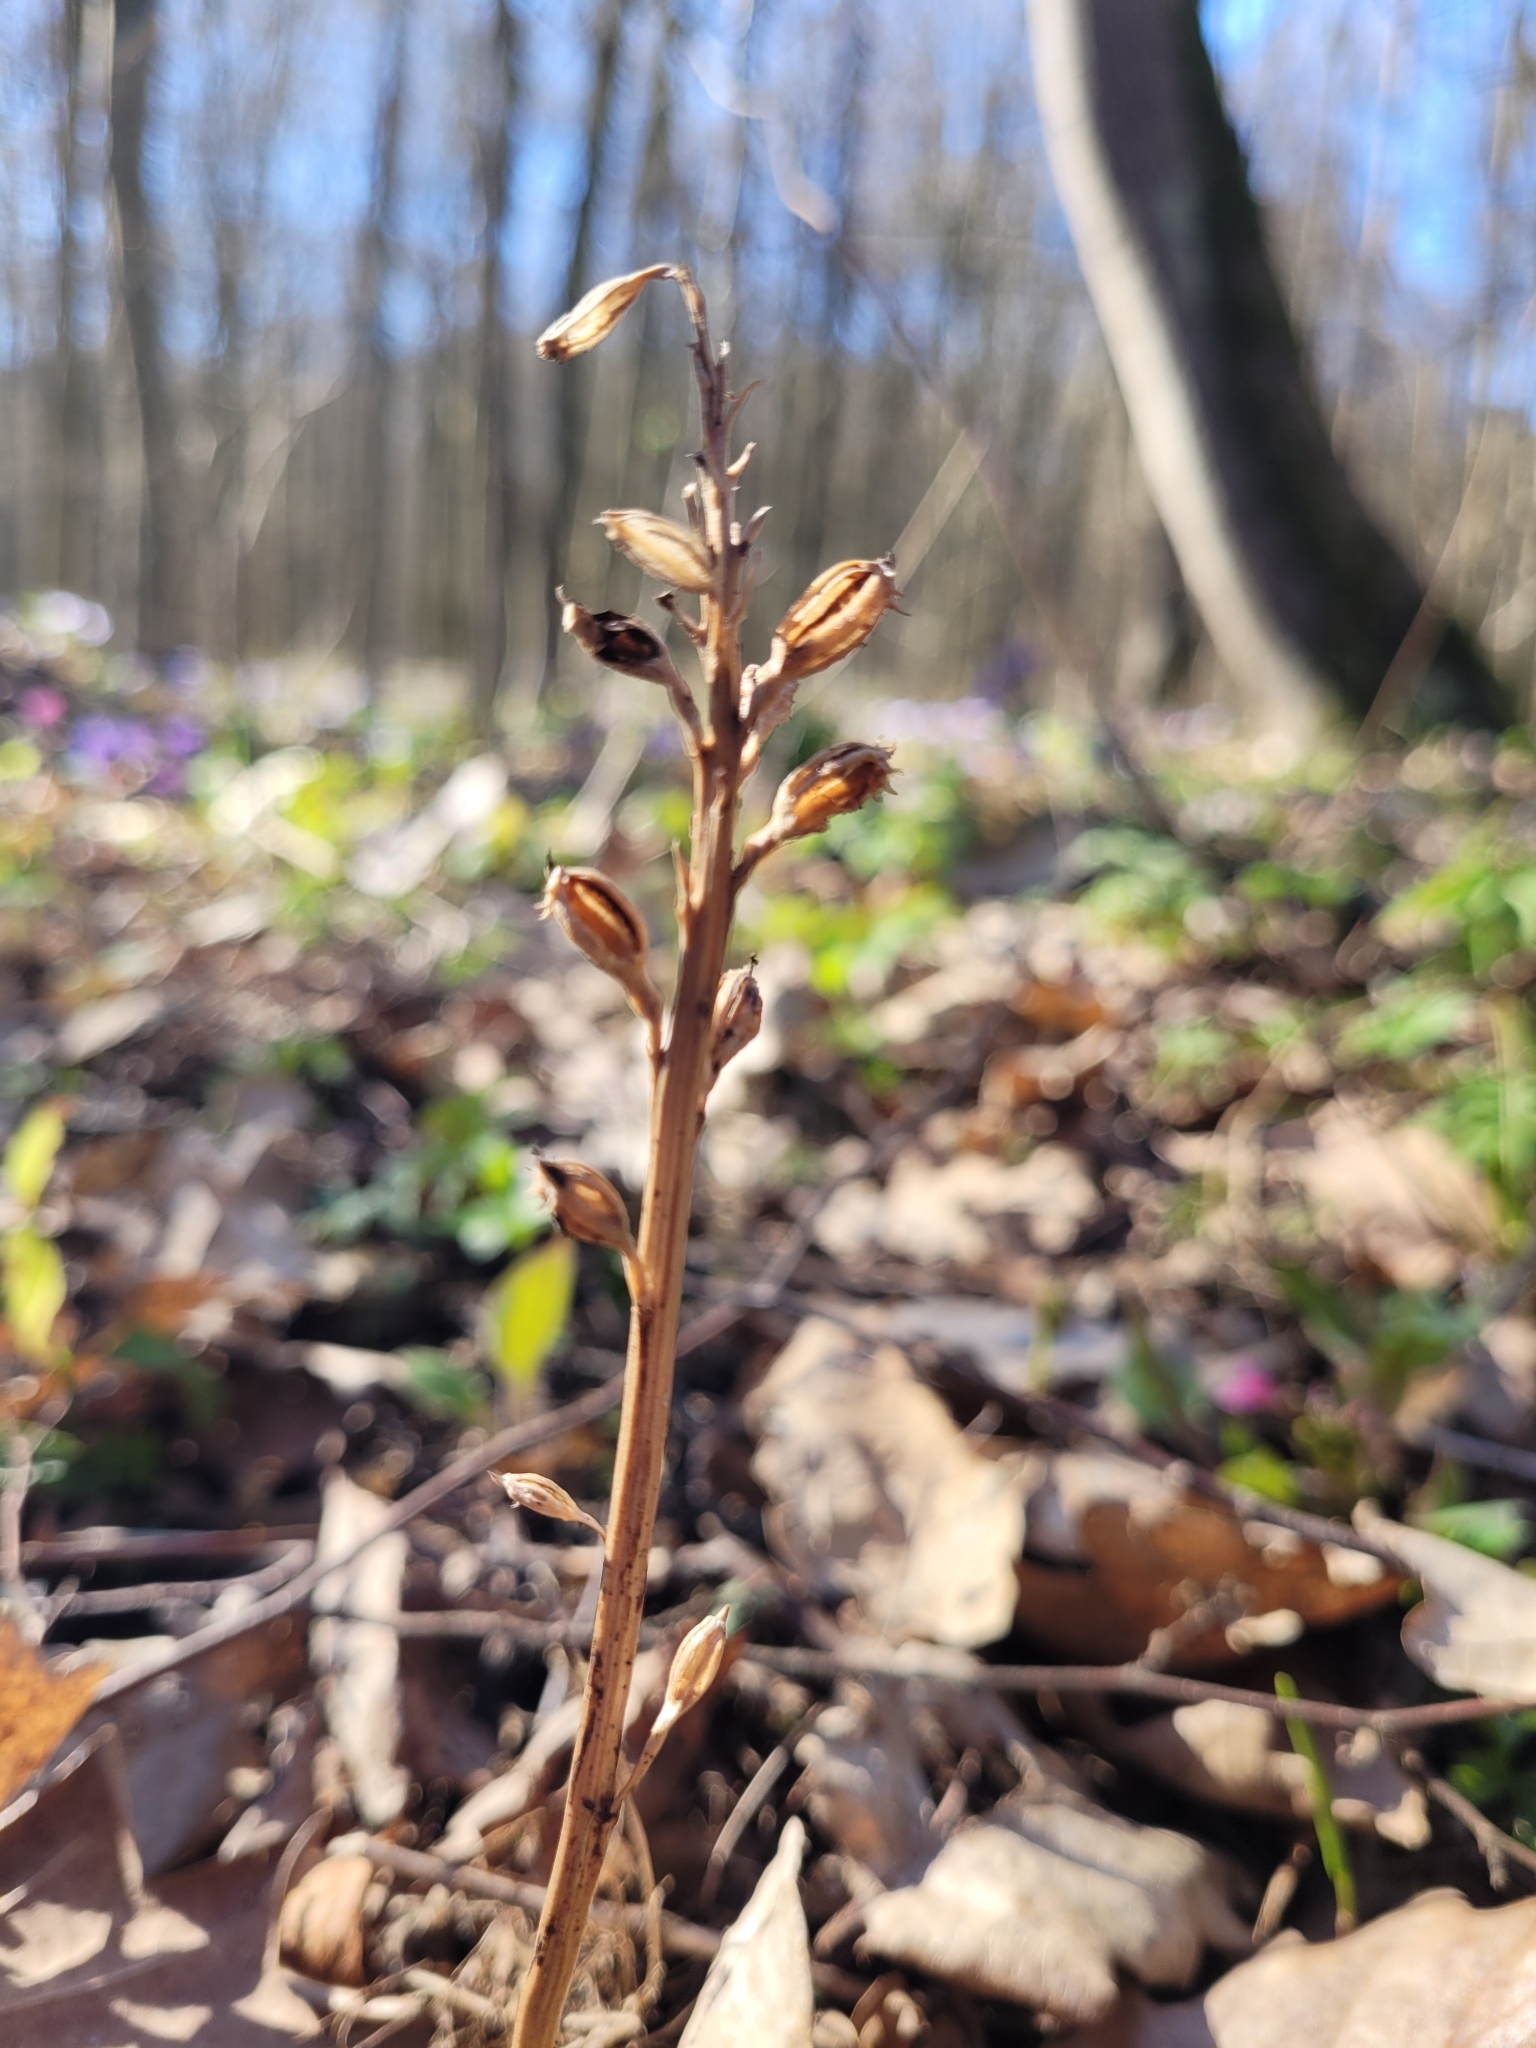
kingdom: Plantae
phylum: Tracheophyta
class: Liliopsida
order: Asparagales
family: Orchidaceae
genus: Neottia
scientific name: Neottia nidus-avis
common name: Bird's-nest orchid
